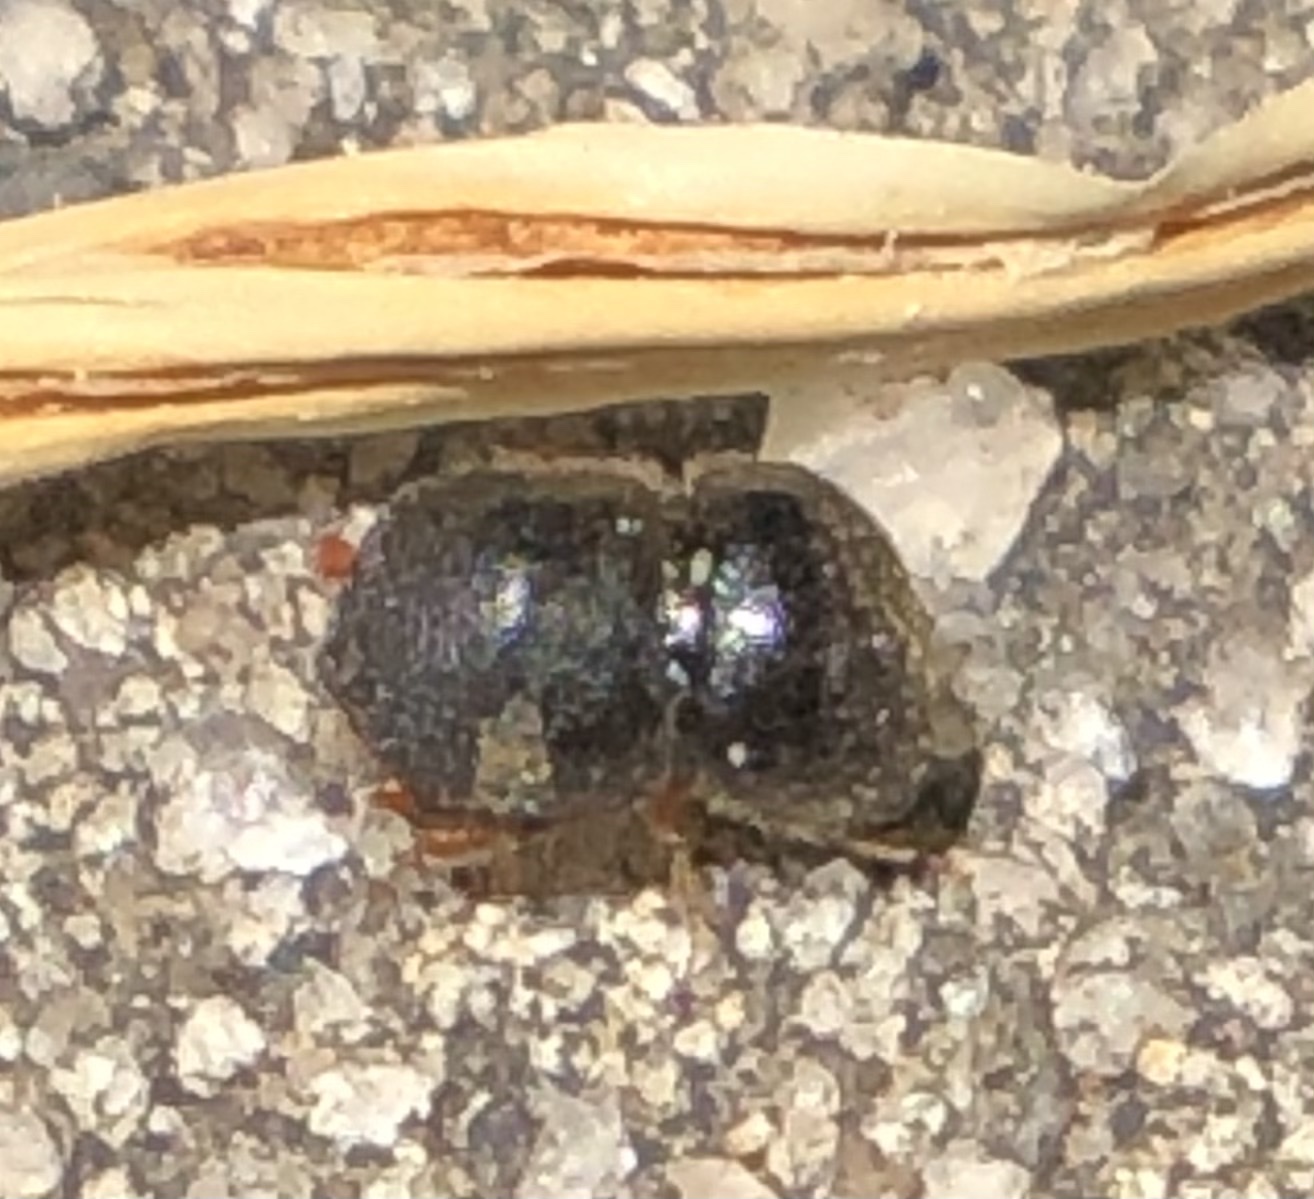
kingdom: Animalia
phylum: Arthropoda
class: Insecta
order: Coleoptera
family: Curculionidae
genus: Cnestus
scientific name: Cnestus mutilatus
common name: Camphor shot borer
